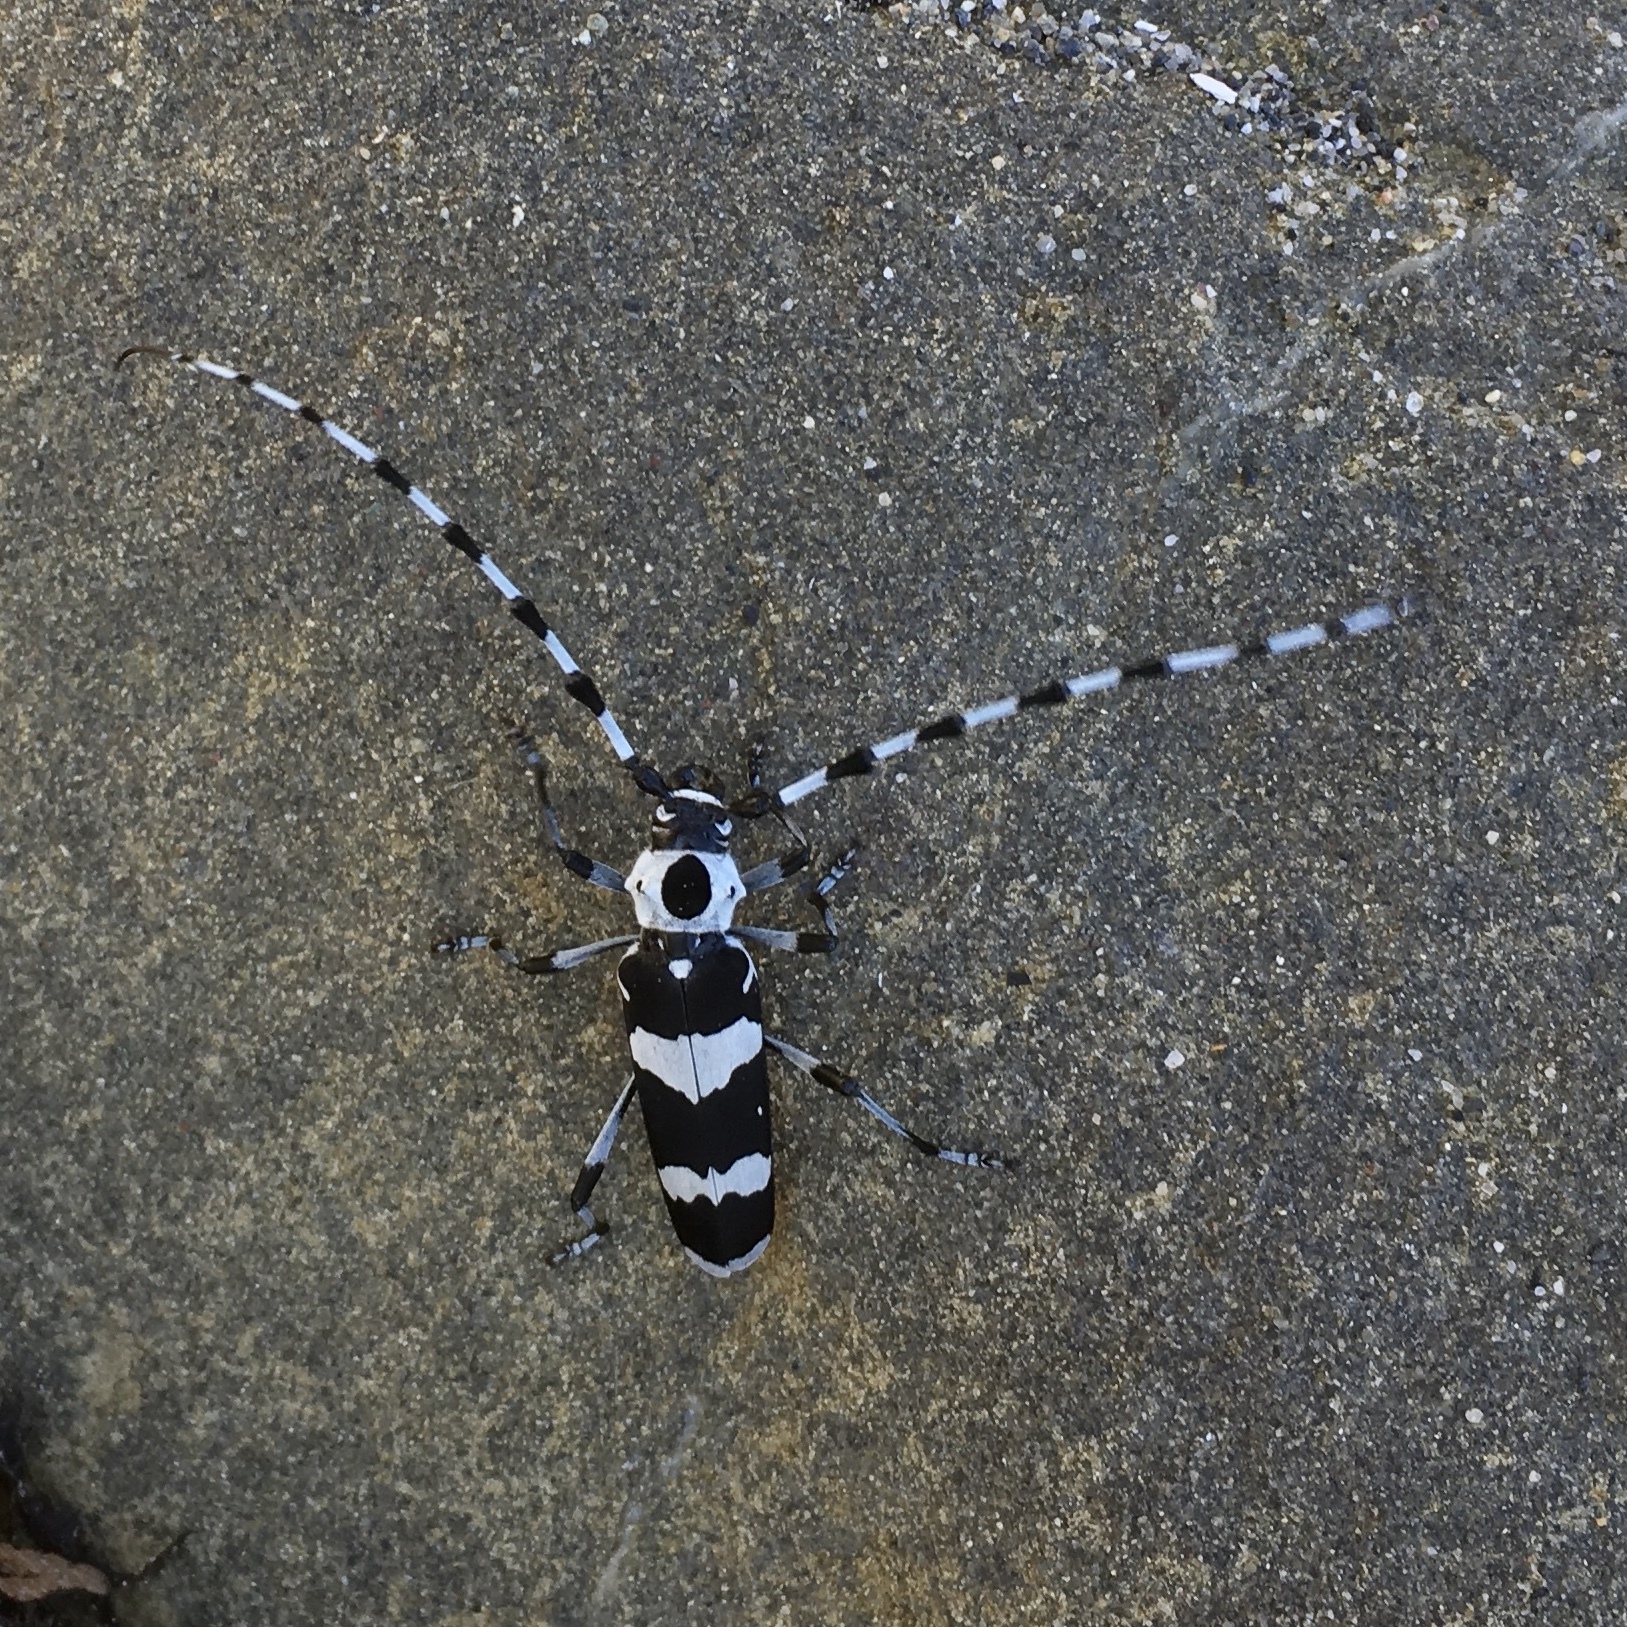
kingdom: Animalia
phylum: Arthropoda
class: Insecta
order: Coleoptera
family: Cerambycidae
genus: Rosalia
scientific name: Rosalia funebris
